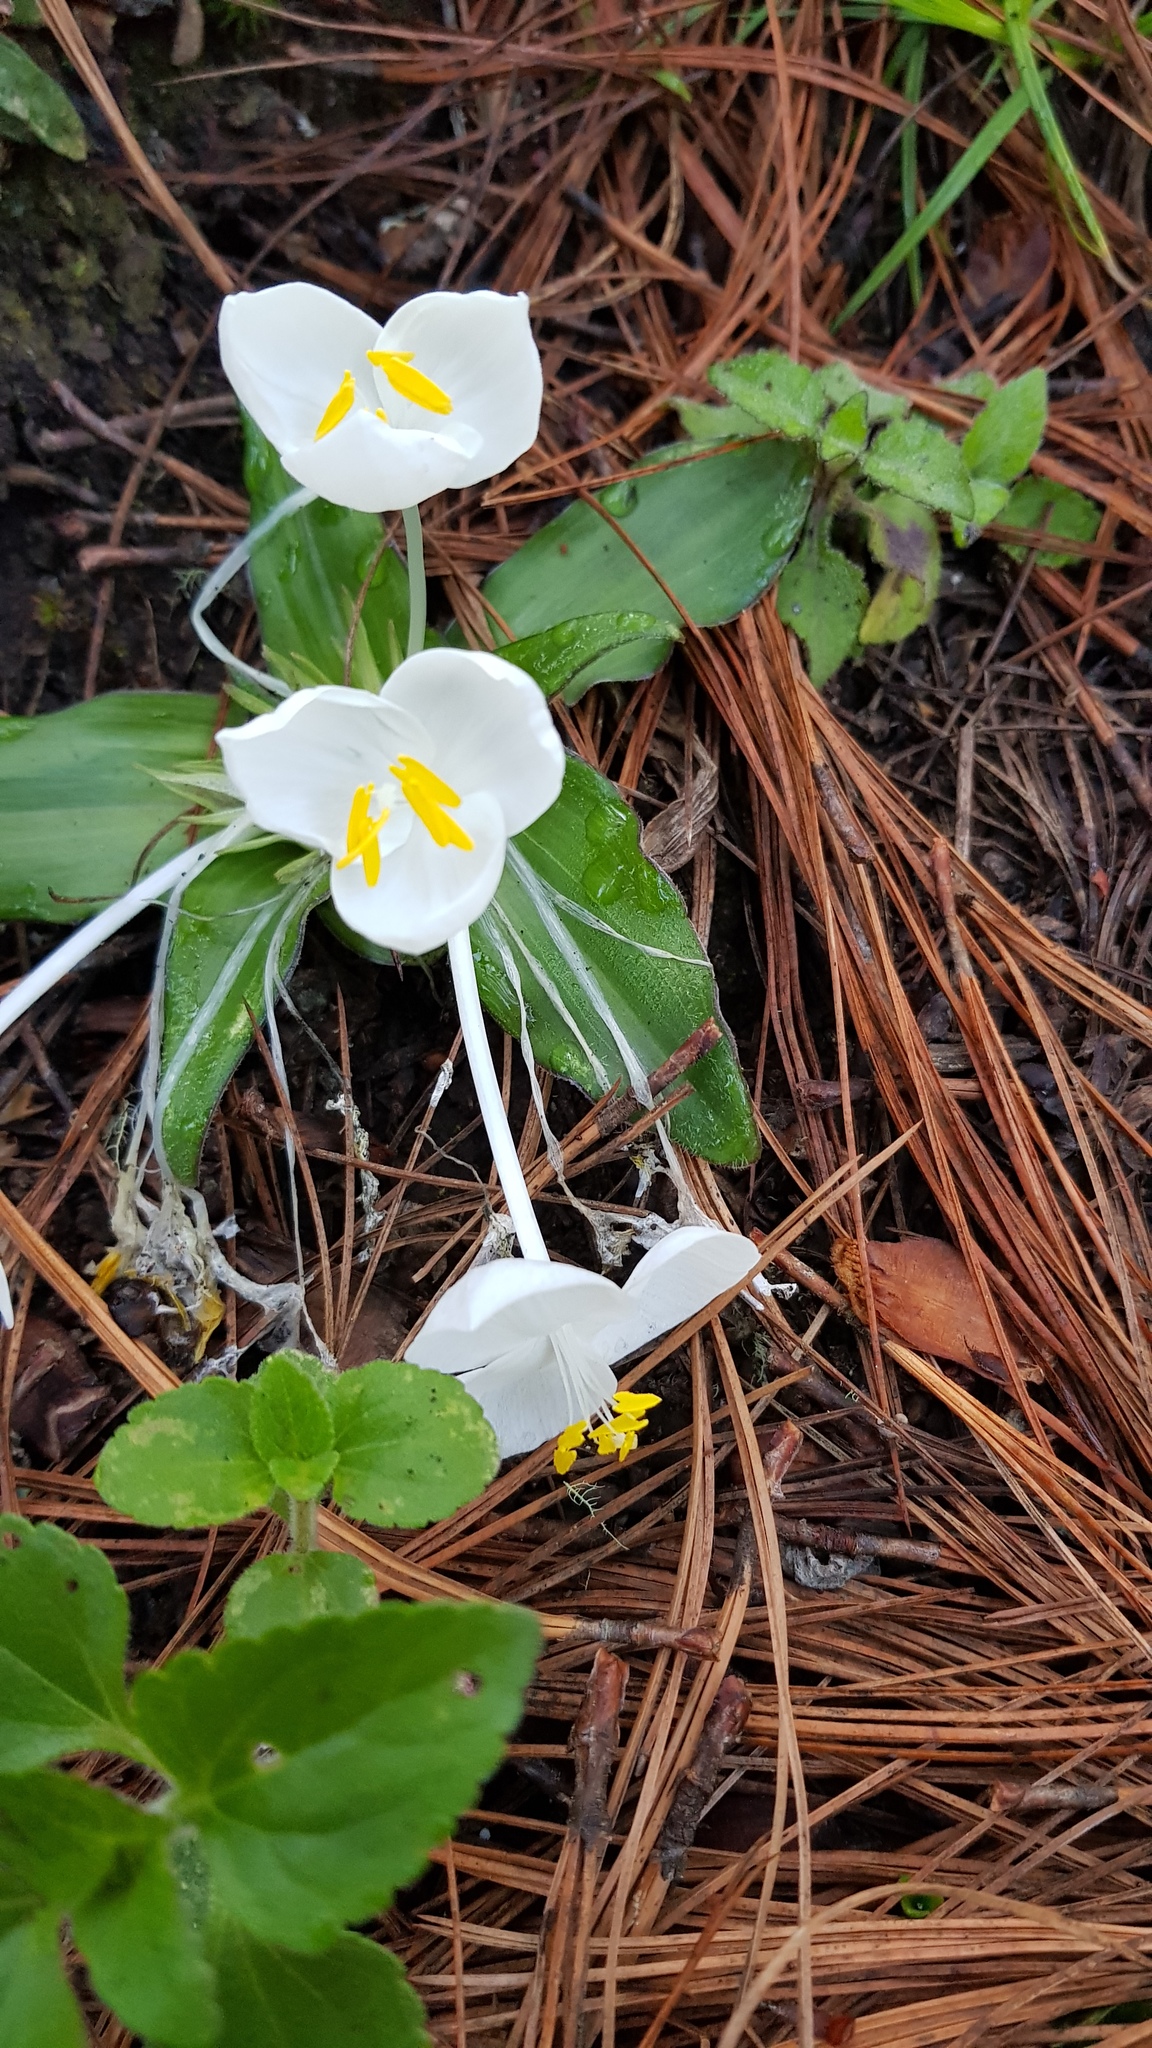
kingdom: Plantae
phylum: Tracheophyta
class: Liliopsida
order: Commelinales
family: Commelinaceae
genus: Weldenia
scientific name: Weldenia candida
